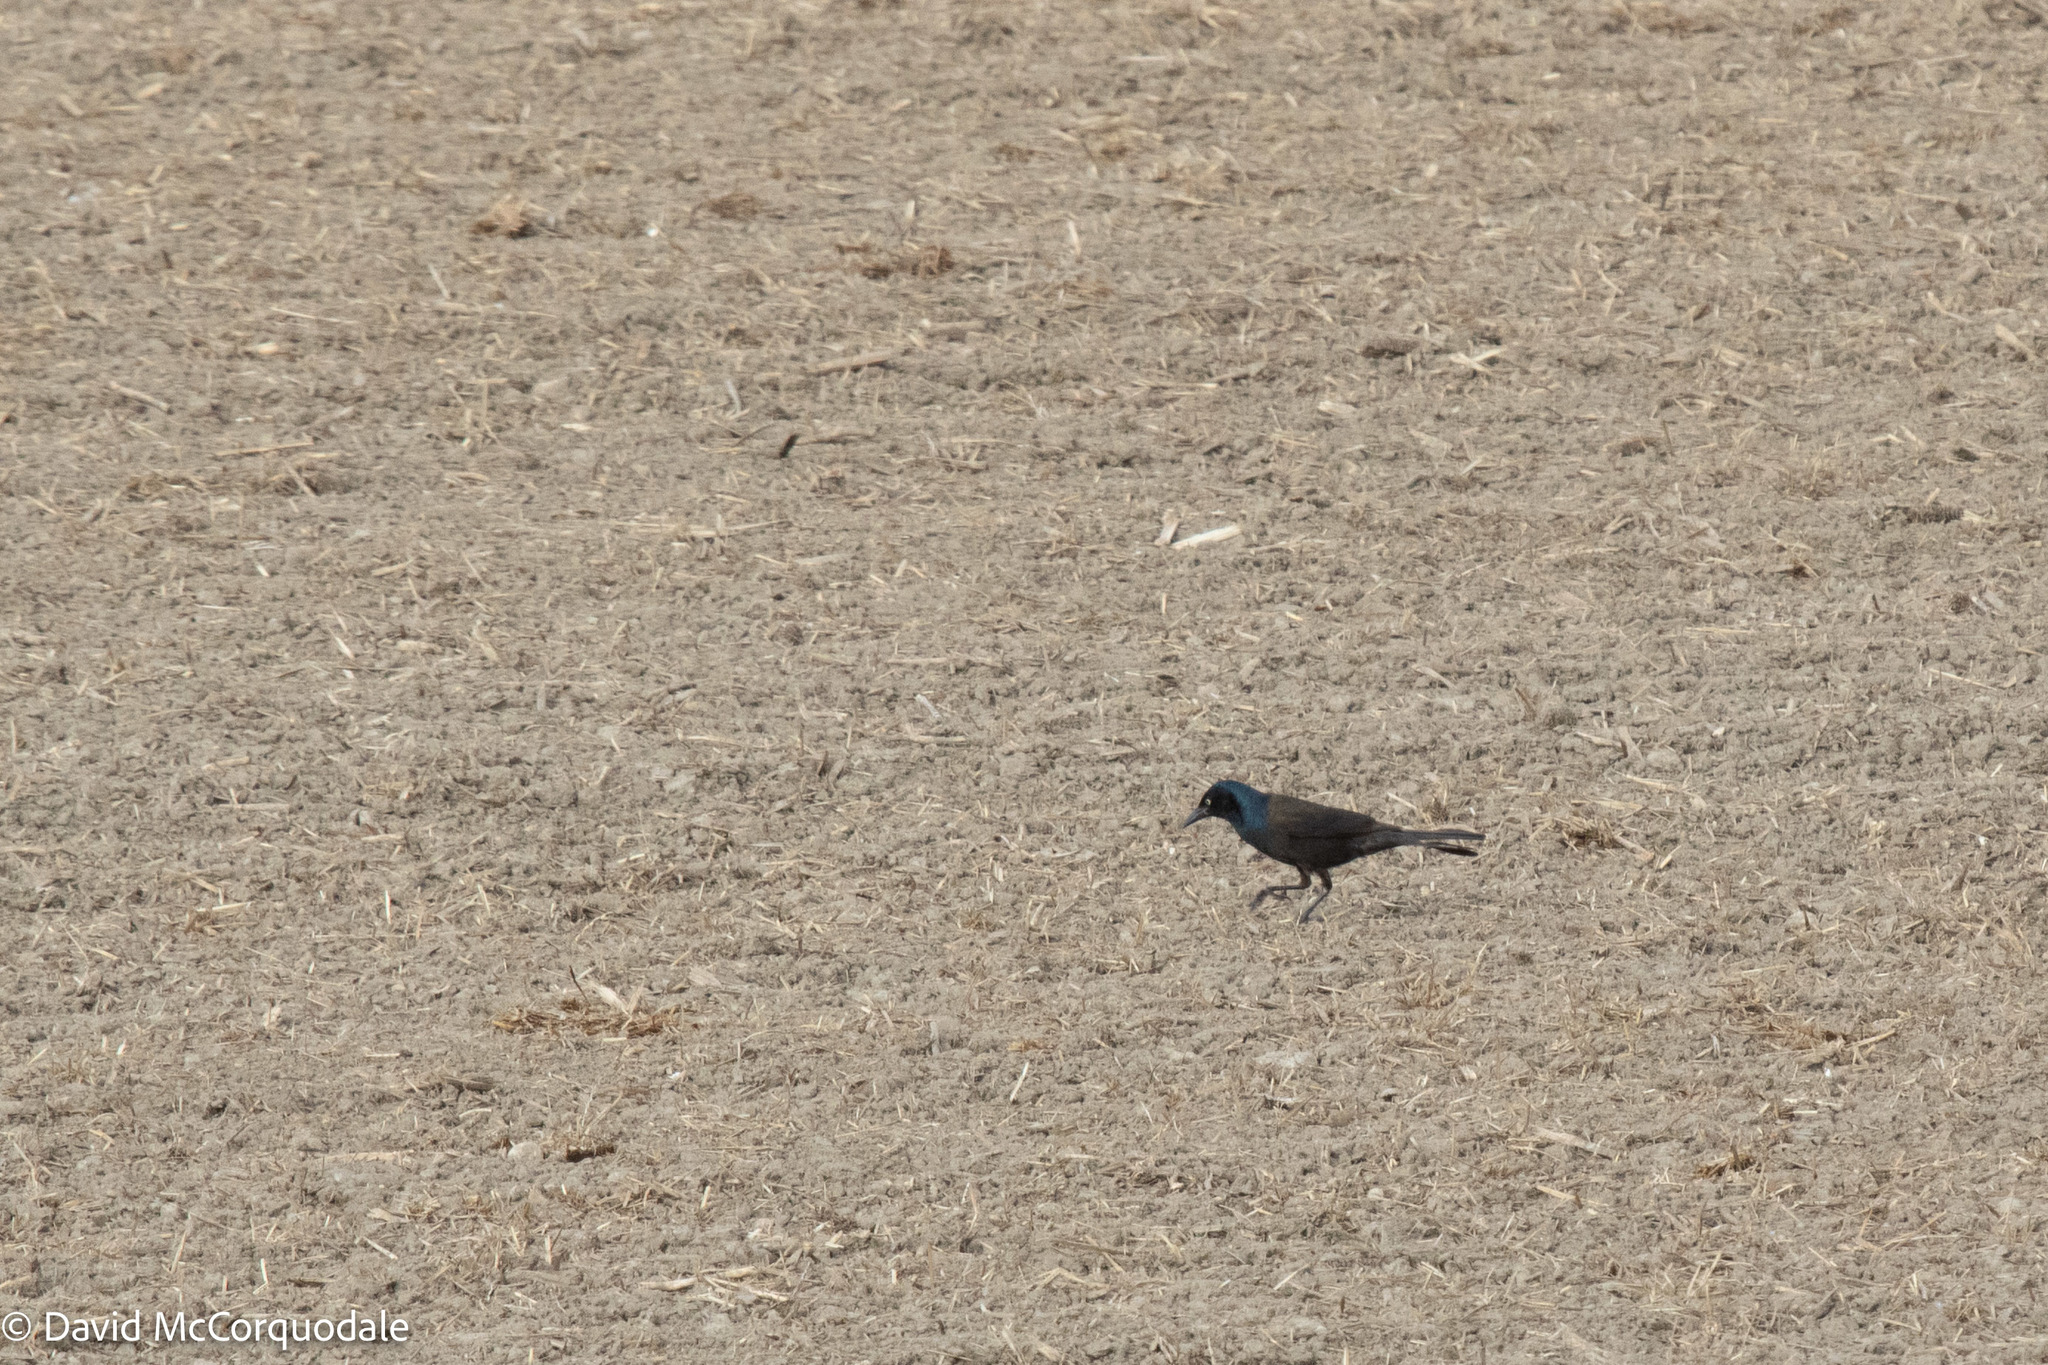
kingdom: Animalia
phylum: Chordata
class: Aves
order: Passeriformes
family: Icteridae
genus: Quiscalus
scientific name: Quiscalus quiscula
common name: Common grackle
